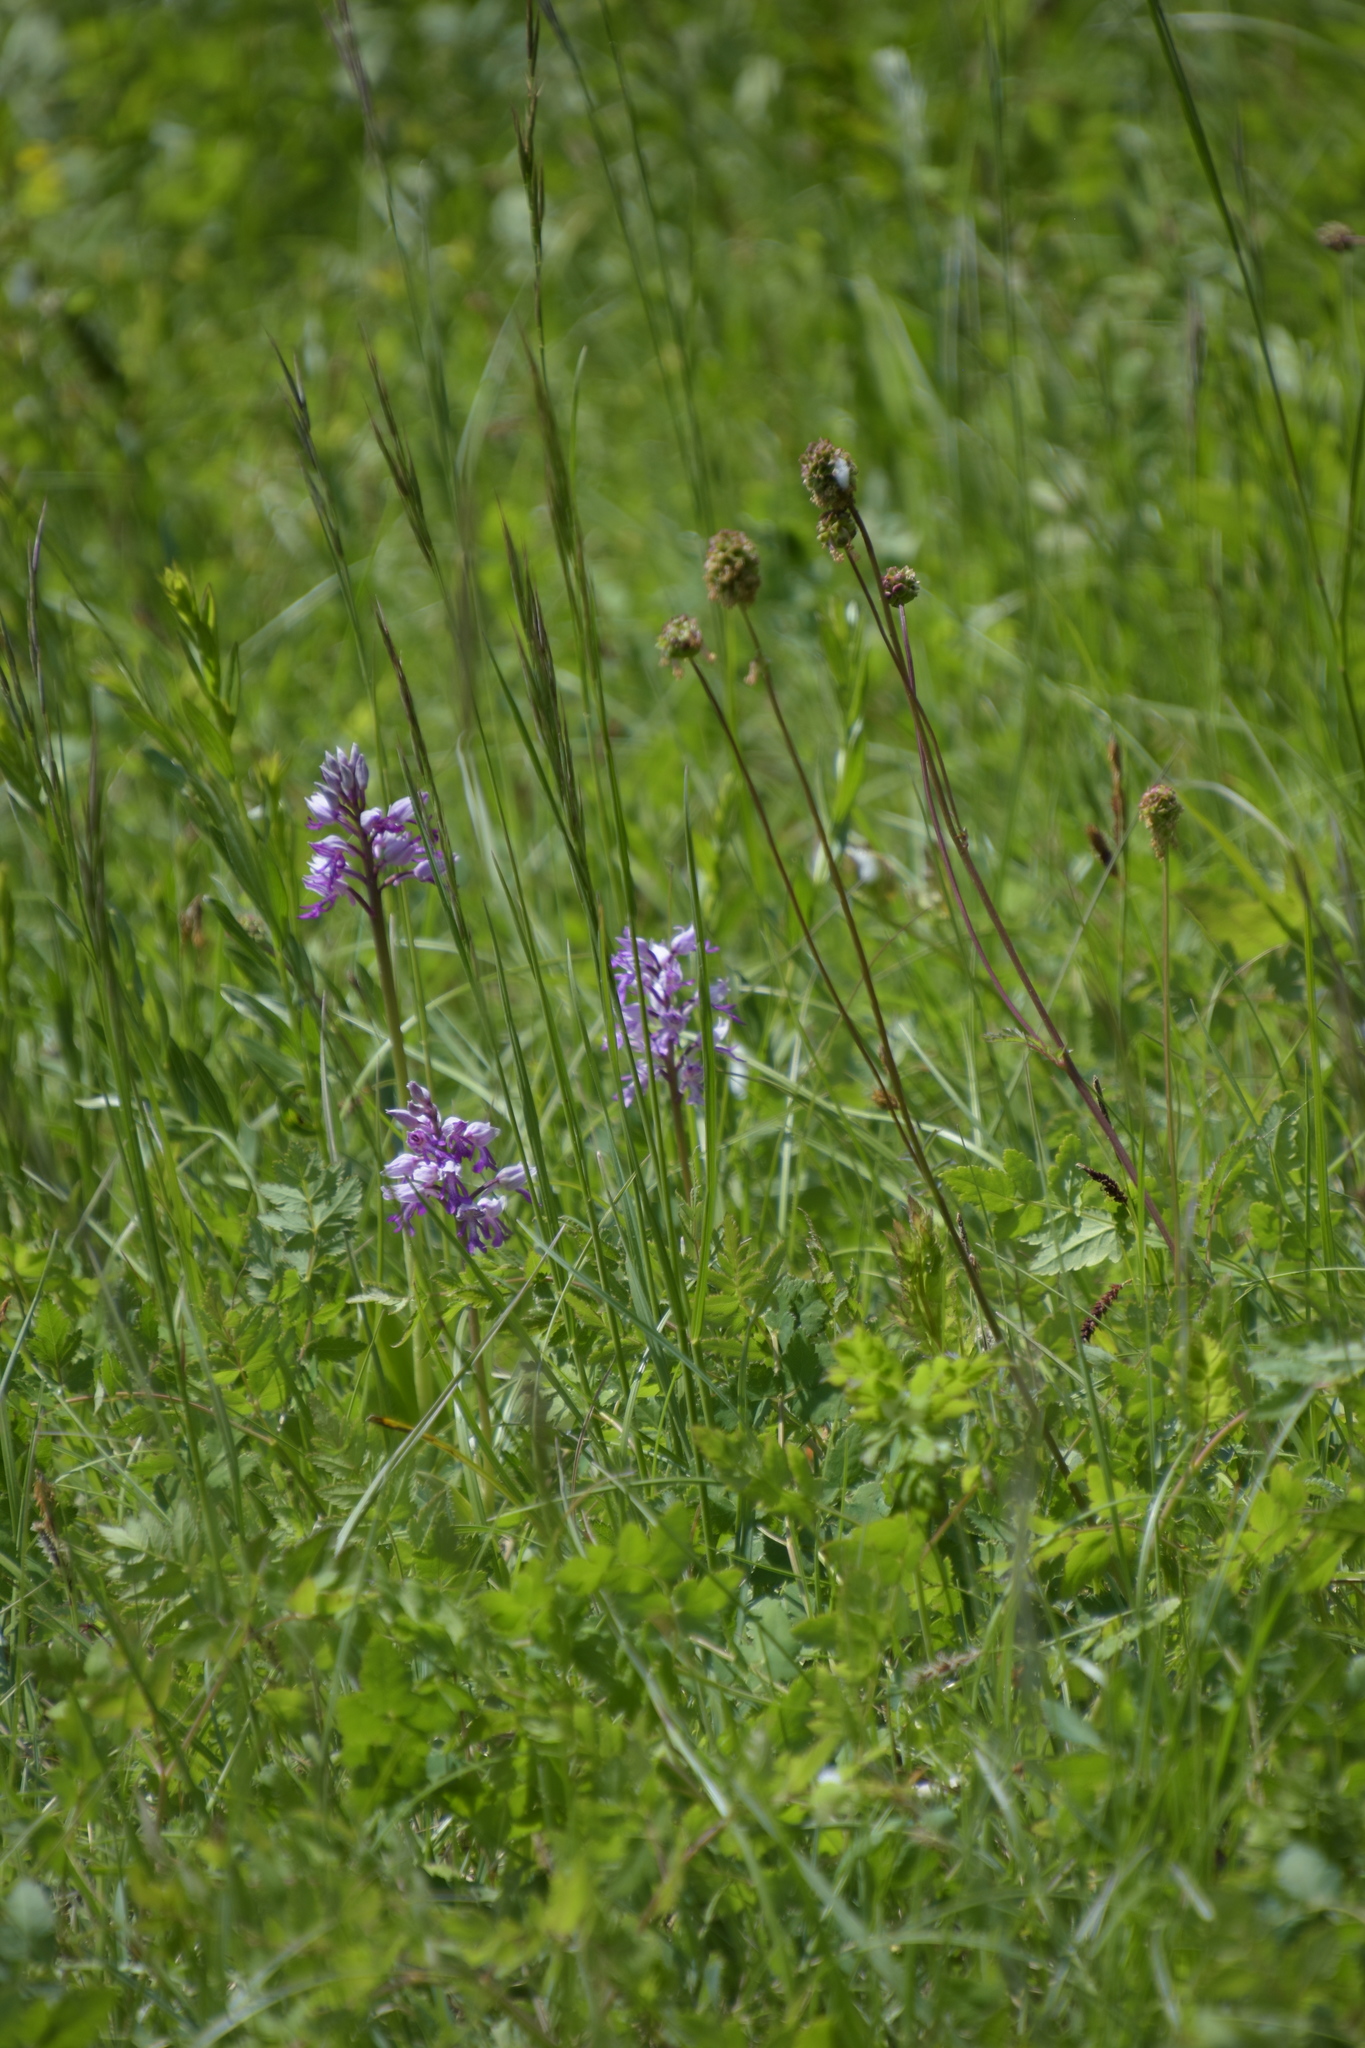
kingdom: Plantae
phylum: Tracheophyta
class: Liliopsida
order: Asparagales
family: Orchidaceae
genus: Orchis
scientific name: Orchis militaris
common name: Military orchid
